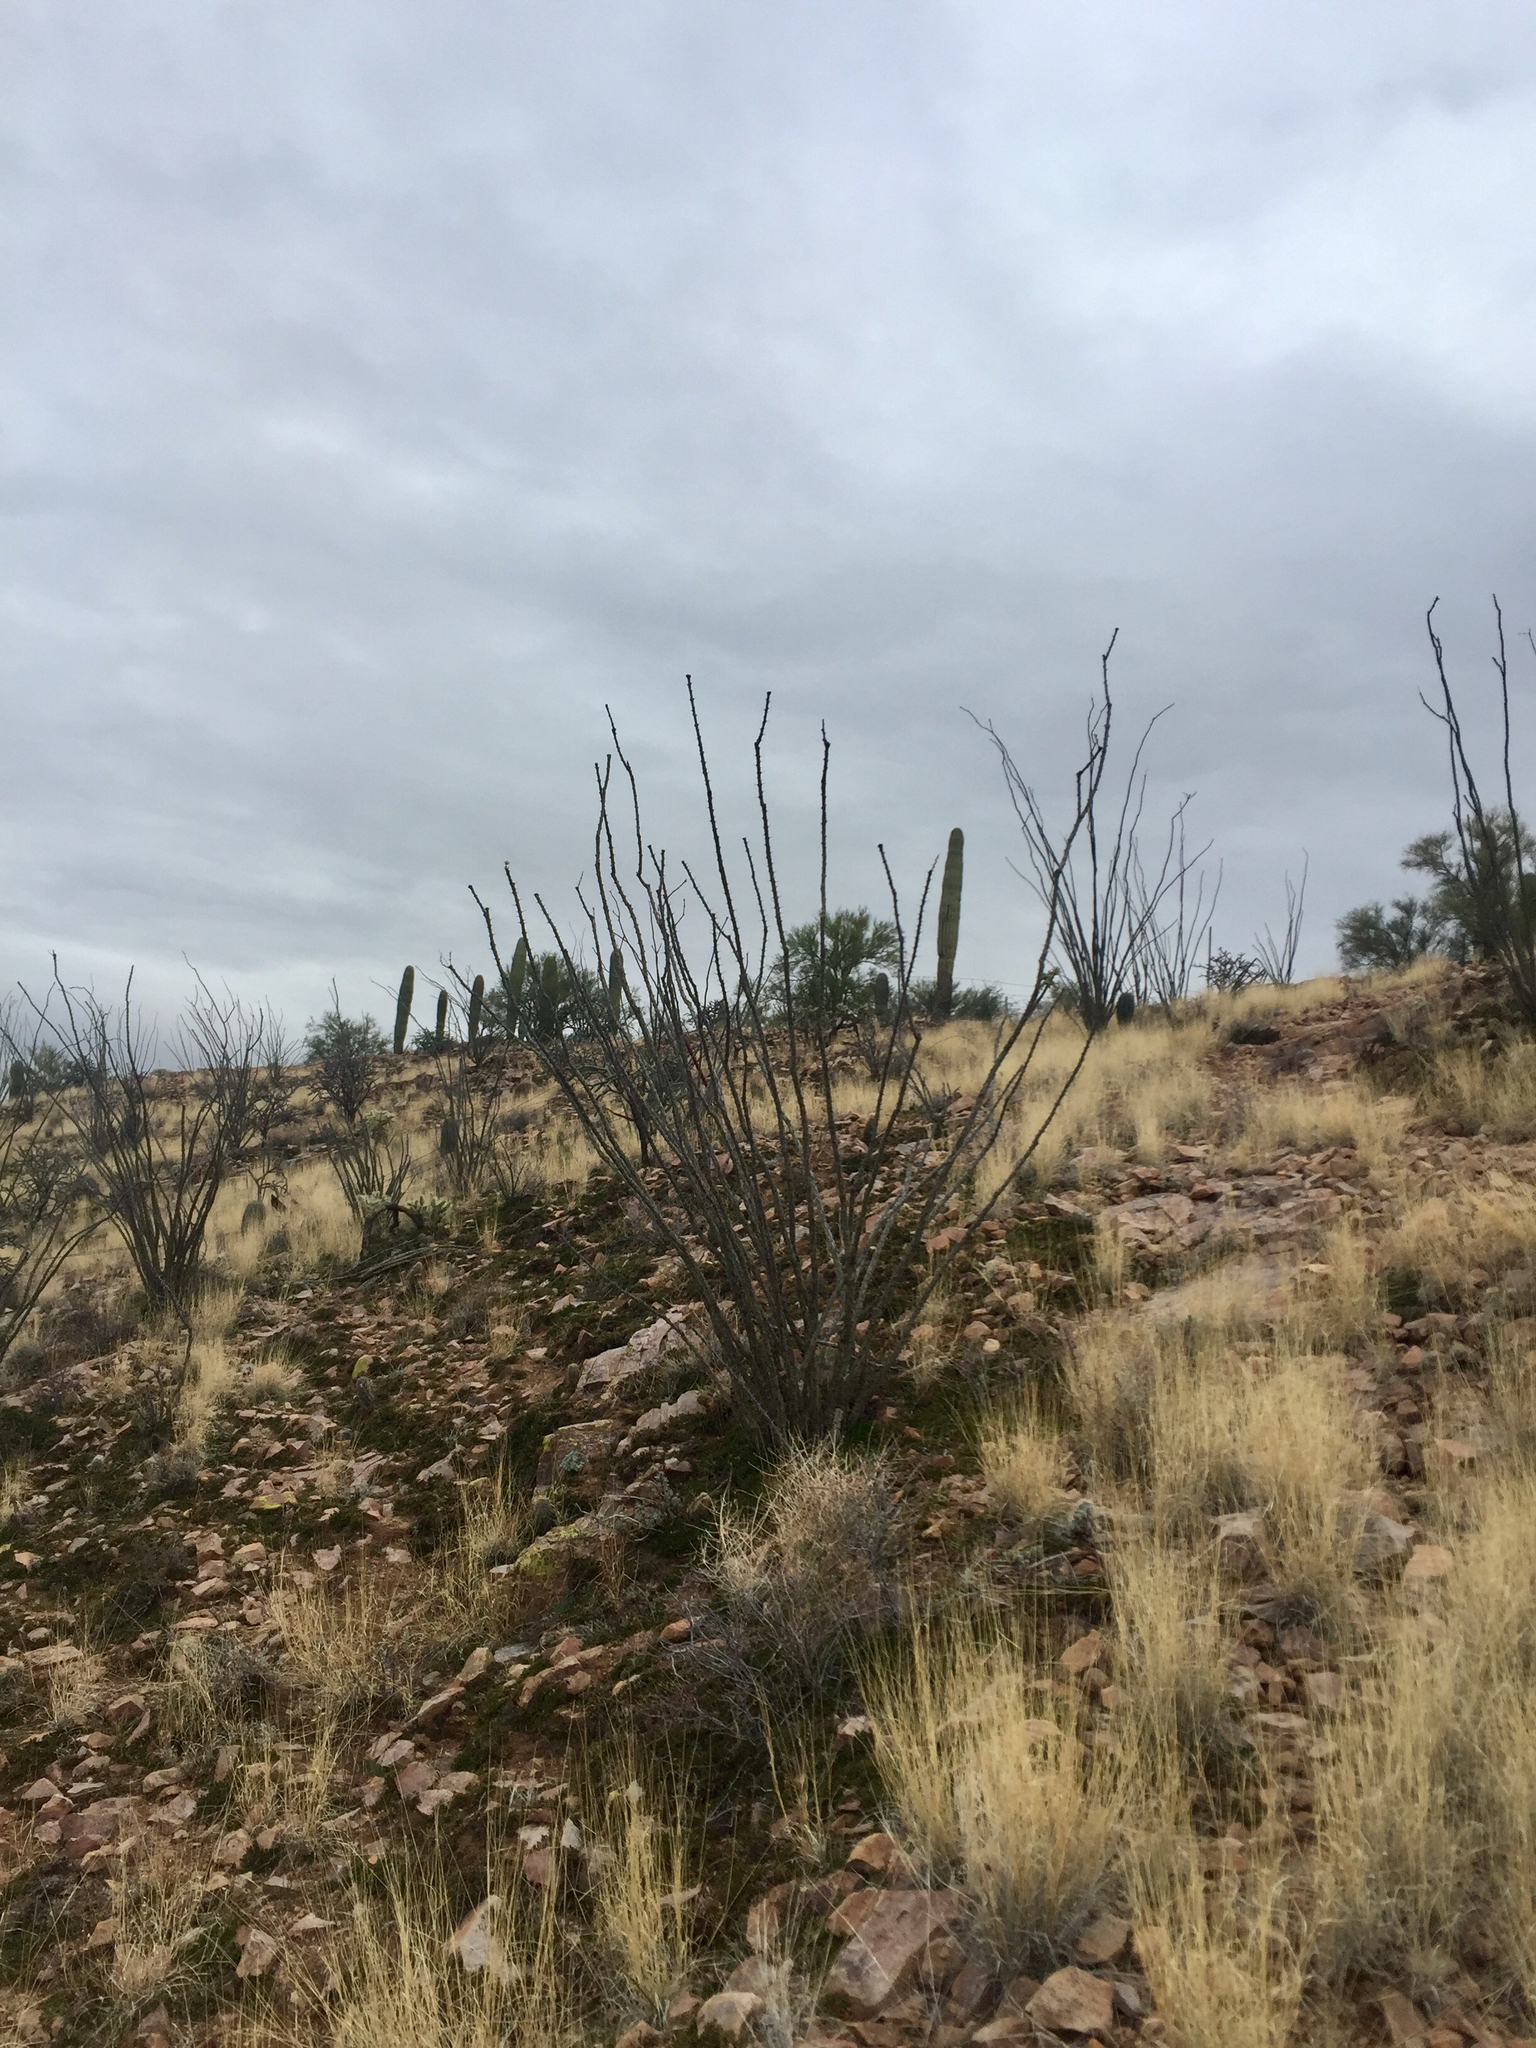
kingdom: Plantae
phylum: Tracheophyta
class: Magnoliopsida
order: Ericales
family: Fouquieriaceae
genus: Fouquieria
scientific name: Fouquieria splendens
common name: Vine-cactus
